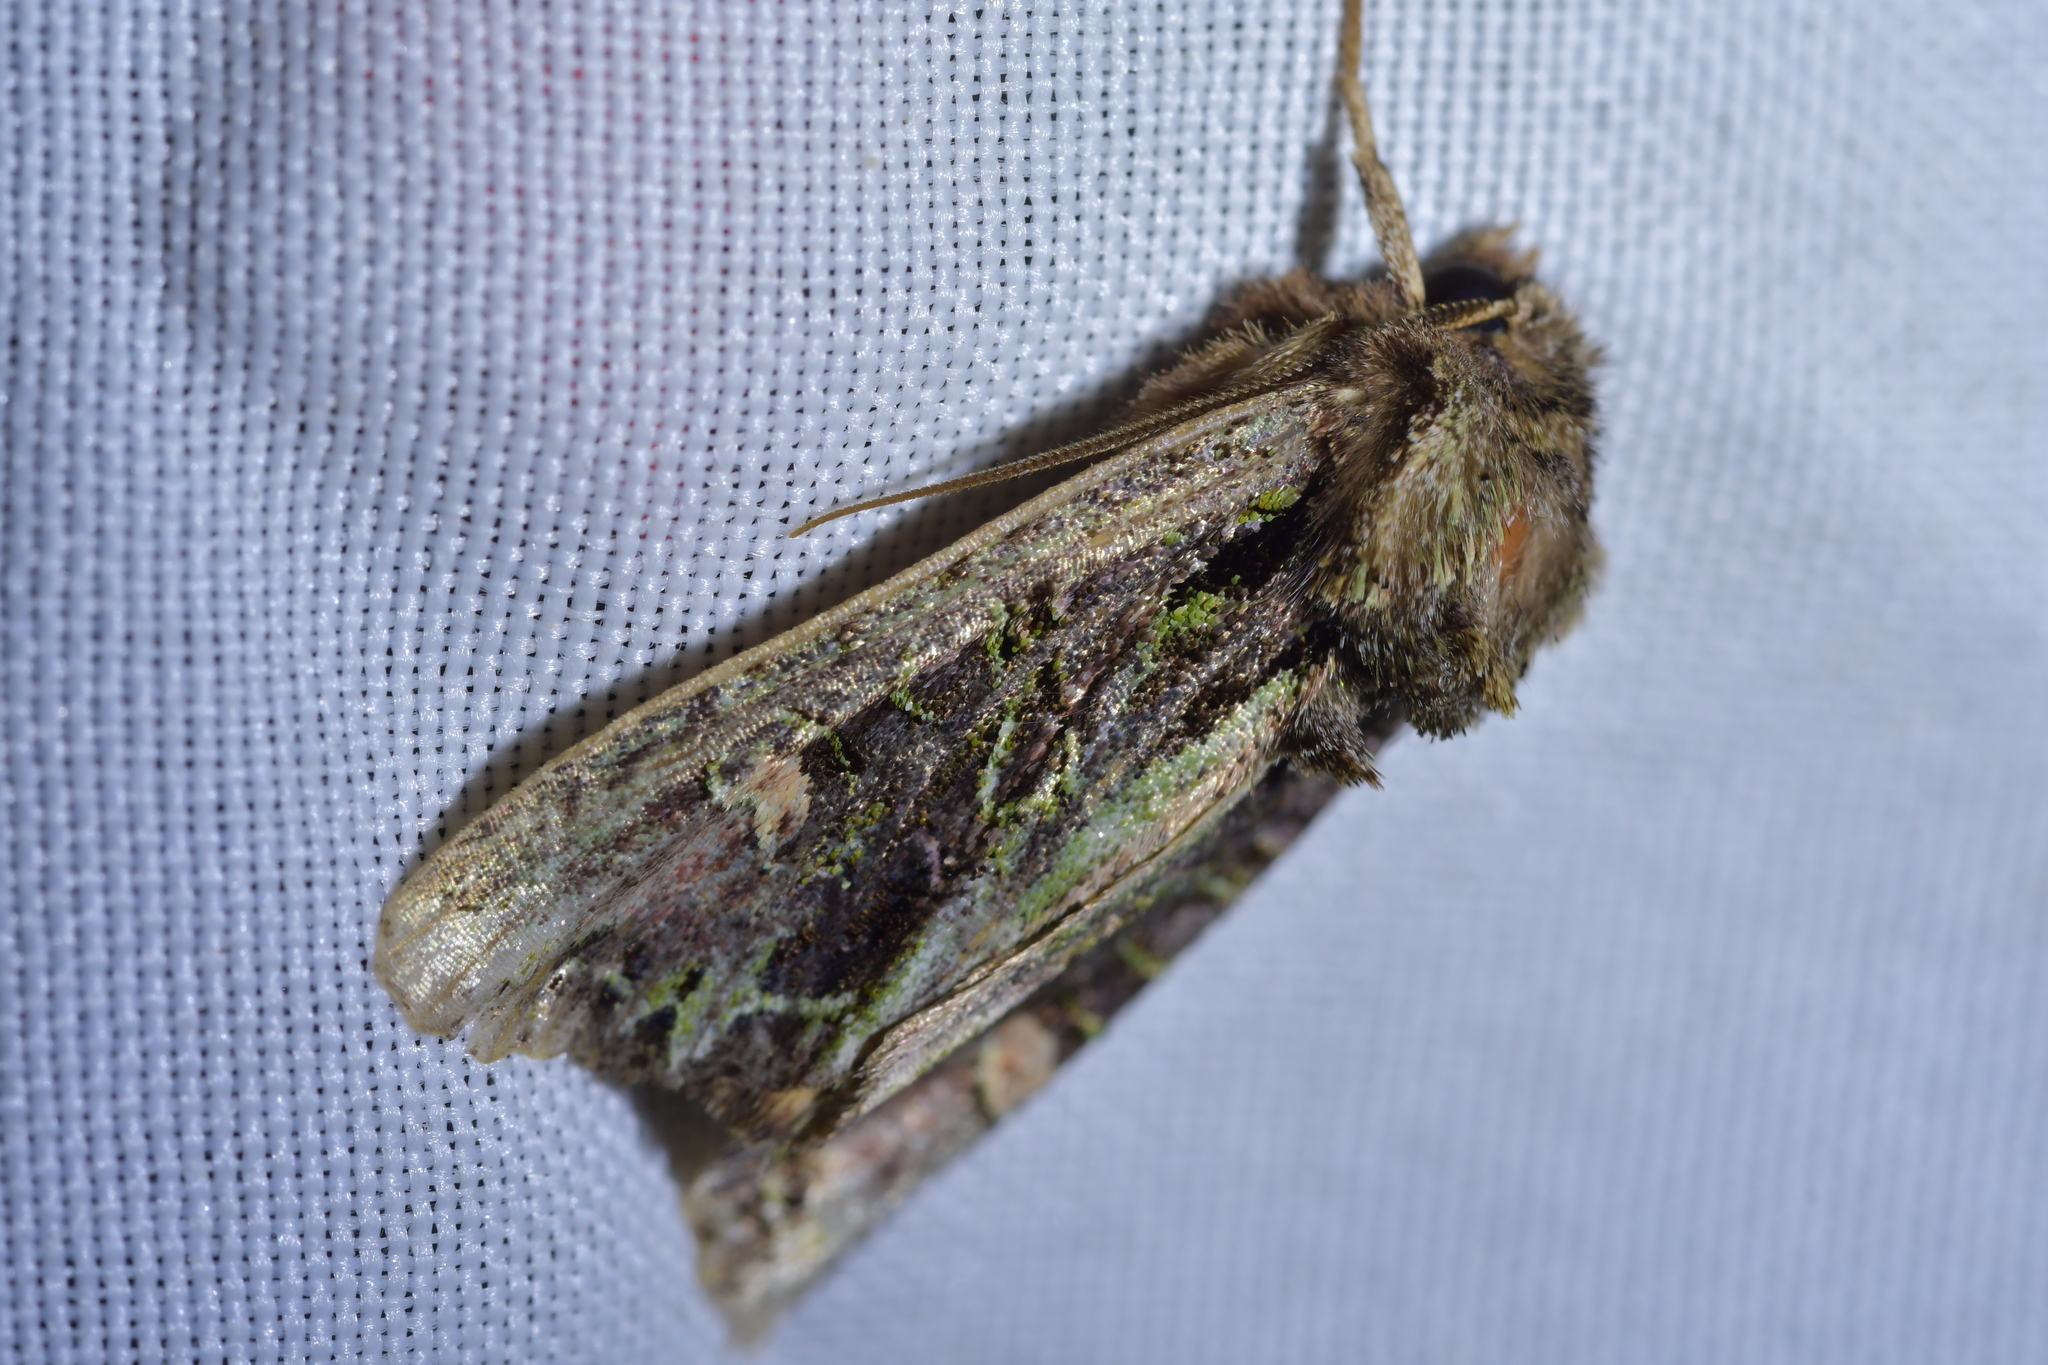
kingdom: Animalia
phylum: Arthropoda
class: Insecta
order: Lepidoptera
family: Noctuidae
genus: Ichneutica
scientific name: Ichneutica insignis
